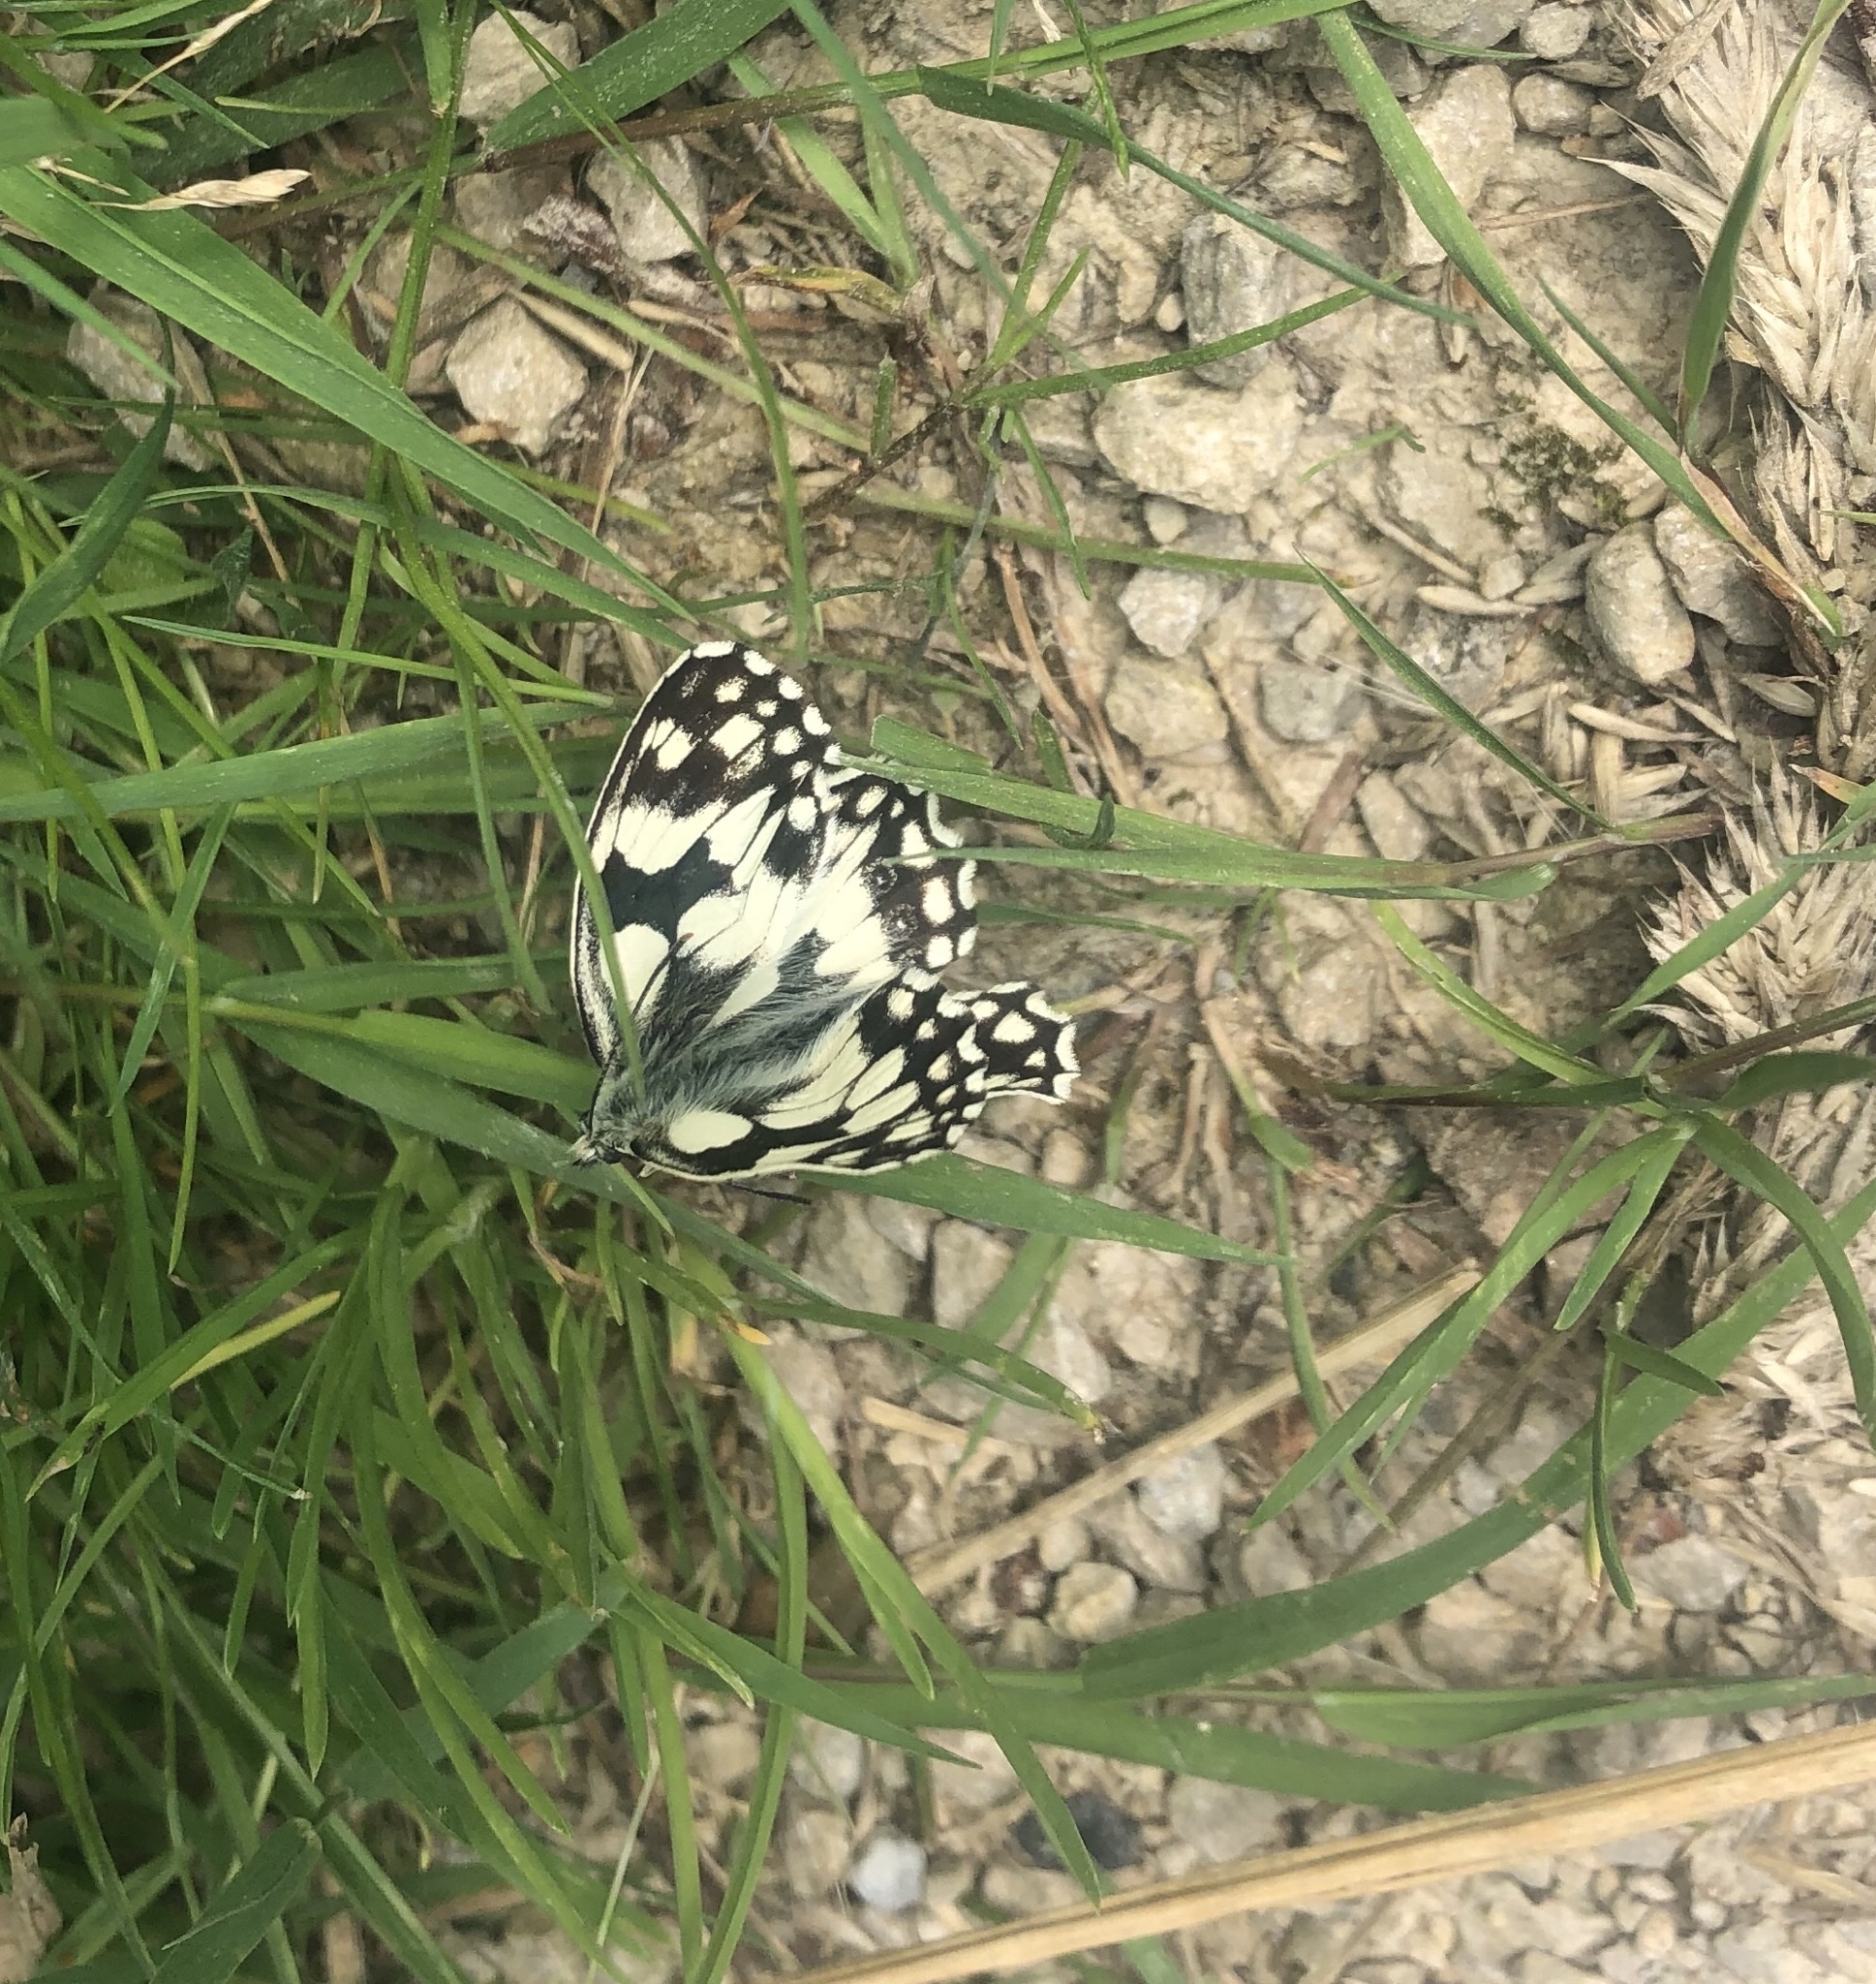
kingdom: Animalia
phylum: Arthropoda
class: Insecta
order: Lepidoptera
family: Nymphalidae
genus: Melanargia
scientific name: Melanargia galathea
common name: Marbled white
